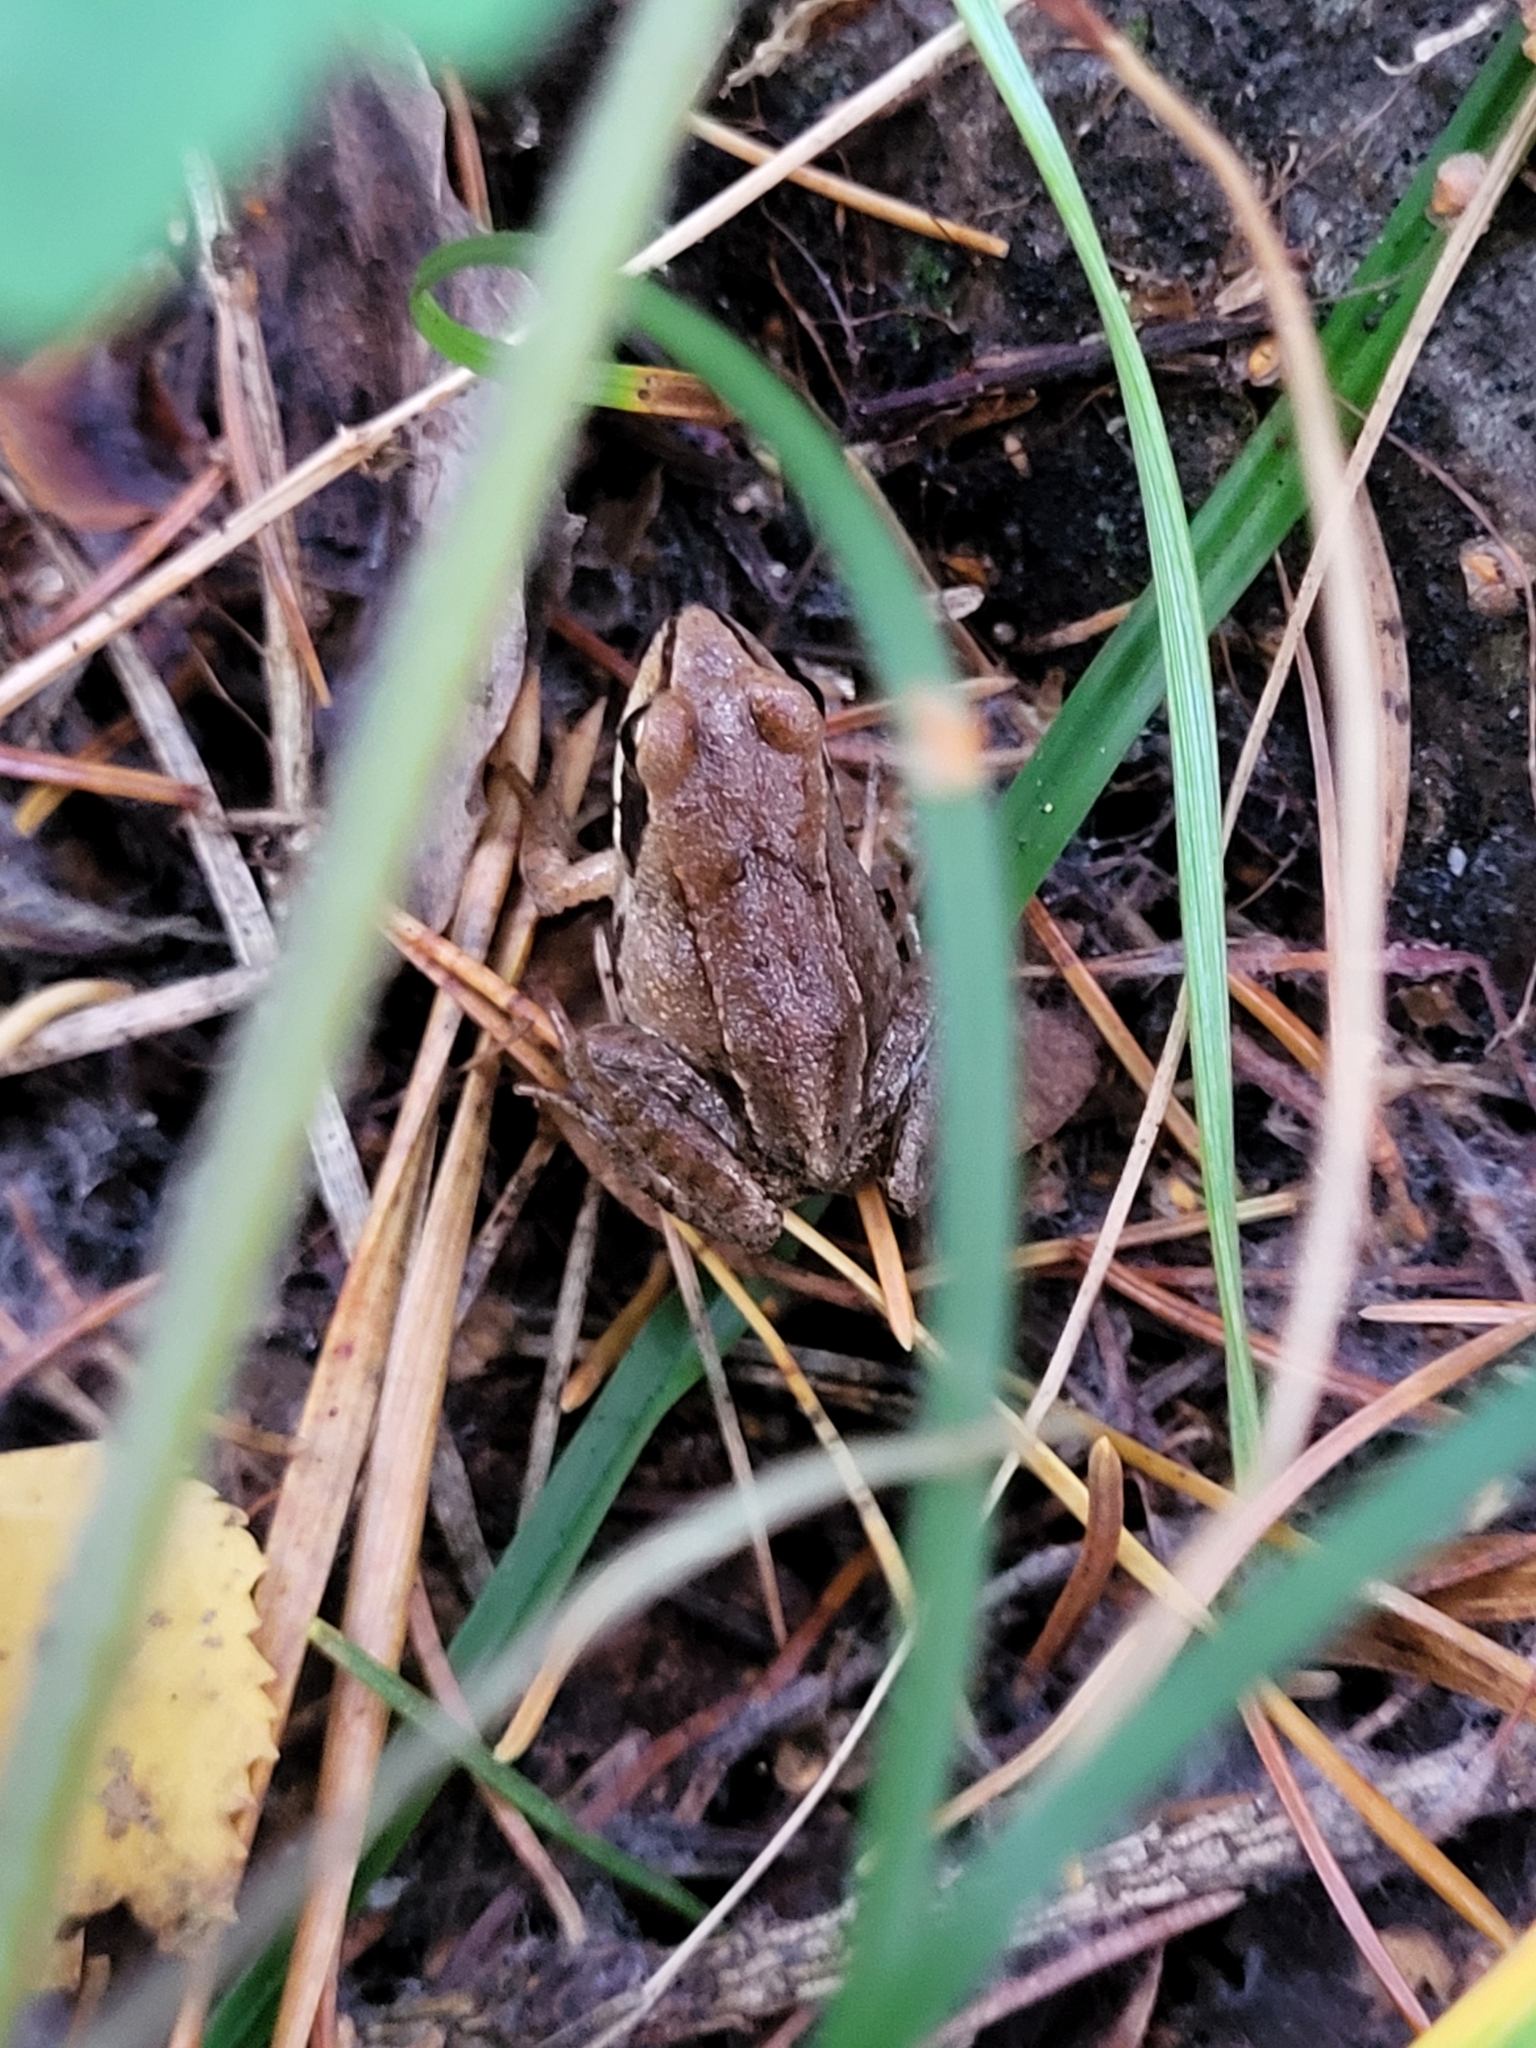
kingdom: Animalia
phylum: Chordata
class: Amphibia
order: Anura
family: Ranidae
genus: Rana
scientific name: Rana arvalis
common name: Moor frog
